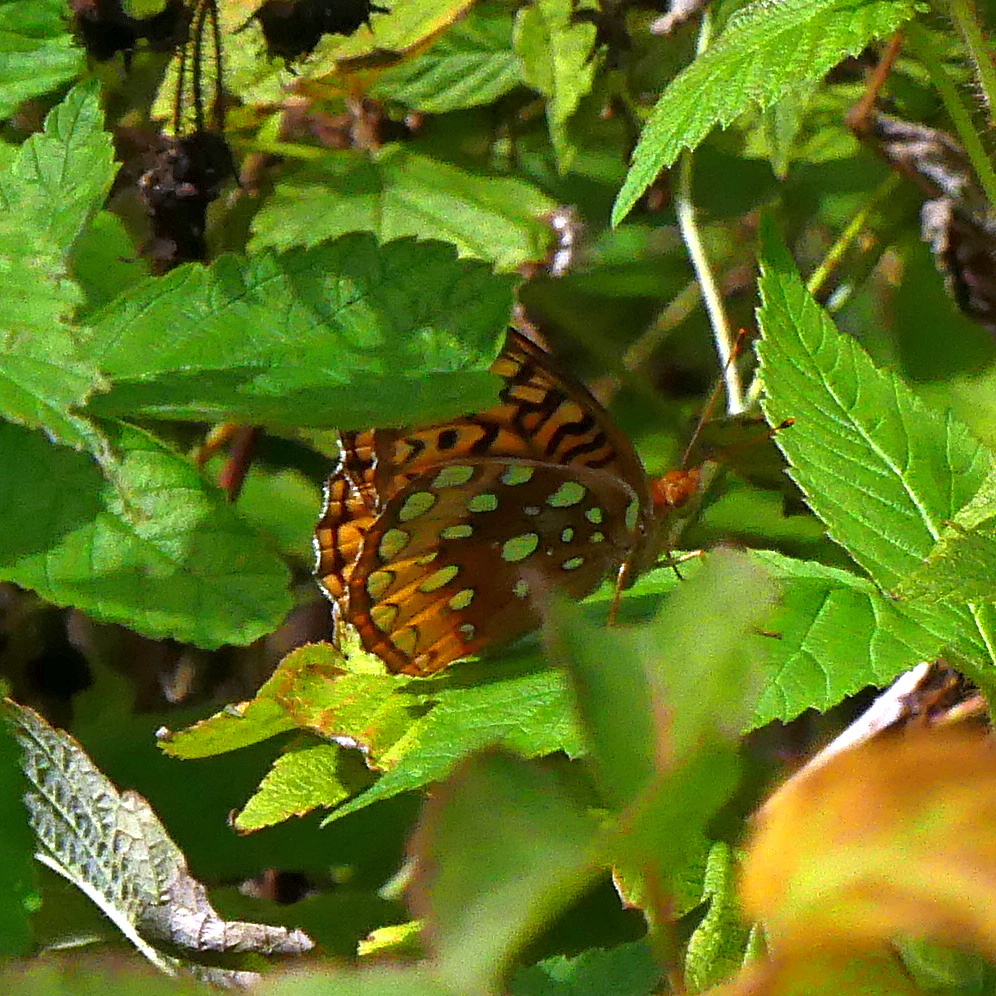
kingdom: Animalia
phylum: Arthropoda
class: Insecta
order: Lepidoptera
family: Nymphalidae
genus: Speyeria
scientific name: Speyeria cybele
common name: Great spangled fritillary
